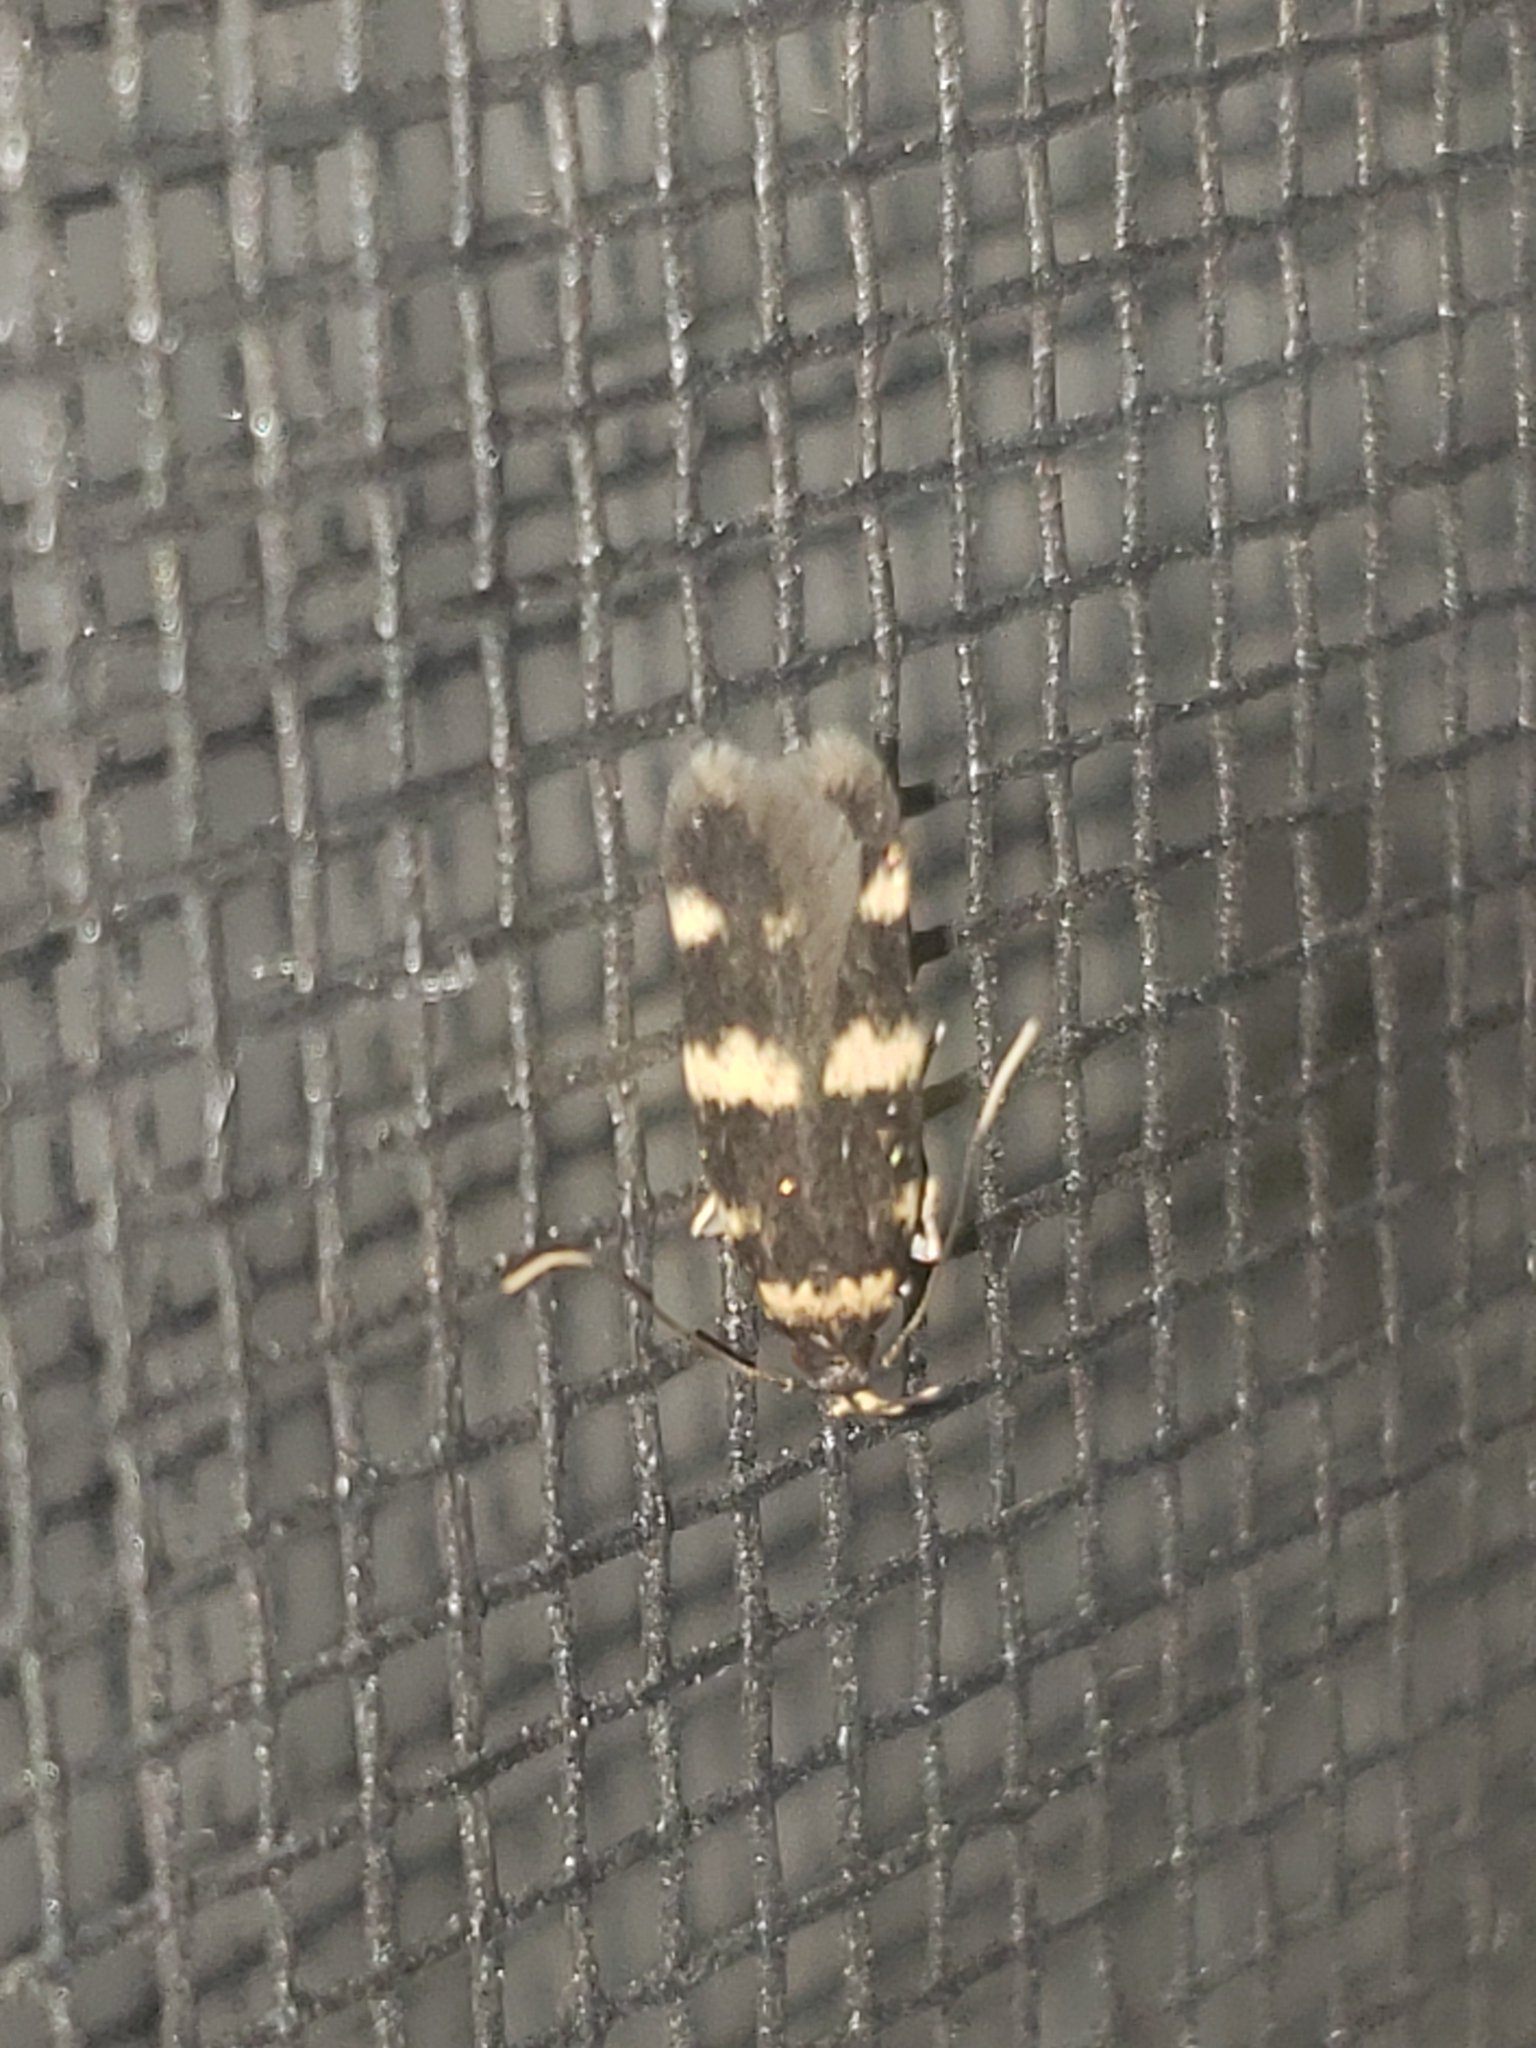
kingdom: Animalia
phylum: Arthropoda
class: Insecta
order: Lepidoptera
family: Autostichidae
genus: Oegoconia
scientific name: Oegoconia quadripuncta
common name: Four-spotted obscure
